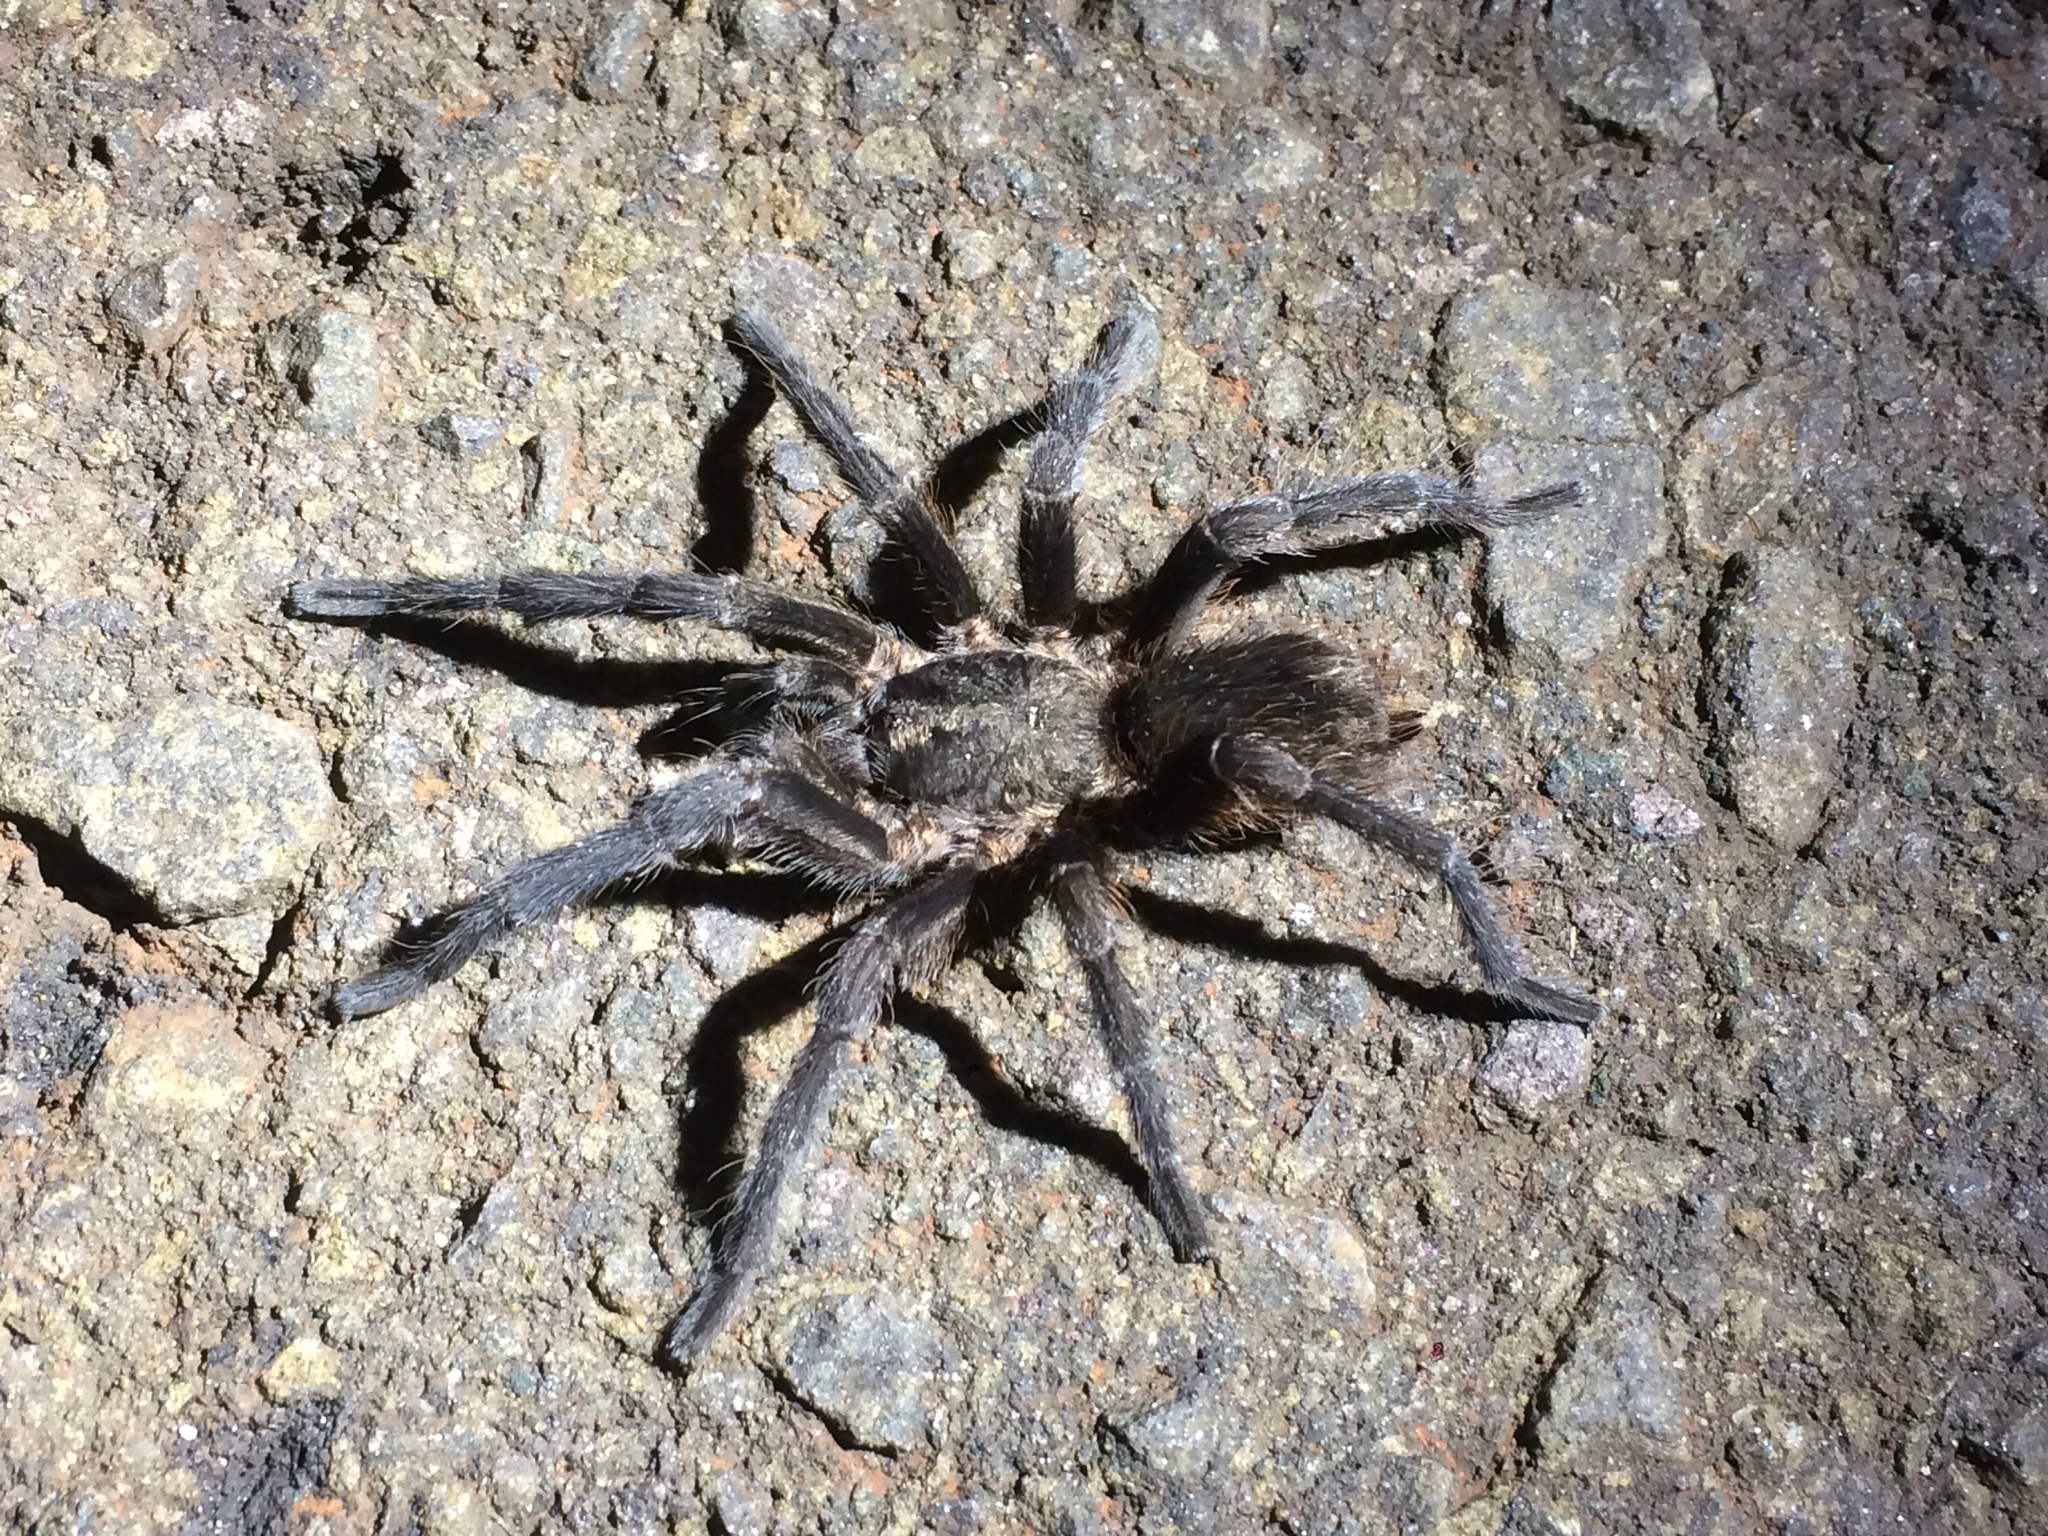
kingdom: Animalia
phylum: Arthropoda
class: Arachnida
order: Araneae
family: Theraphosidae
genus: Pterinopelma
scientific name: Pterinopelma longisternale
